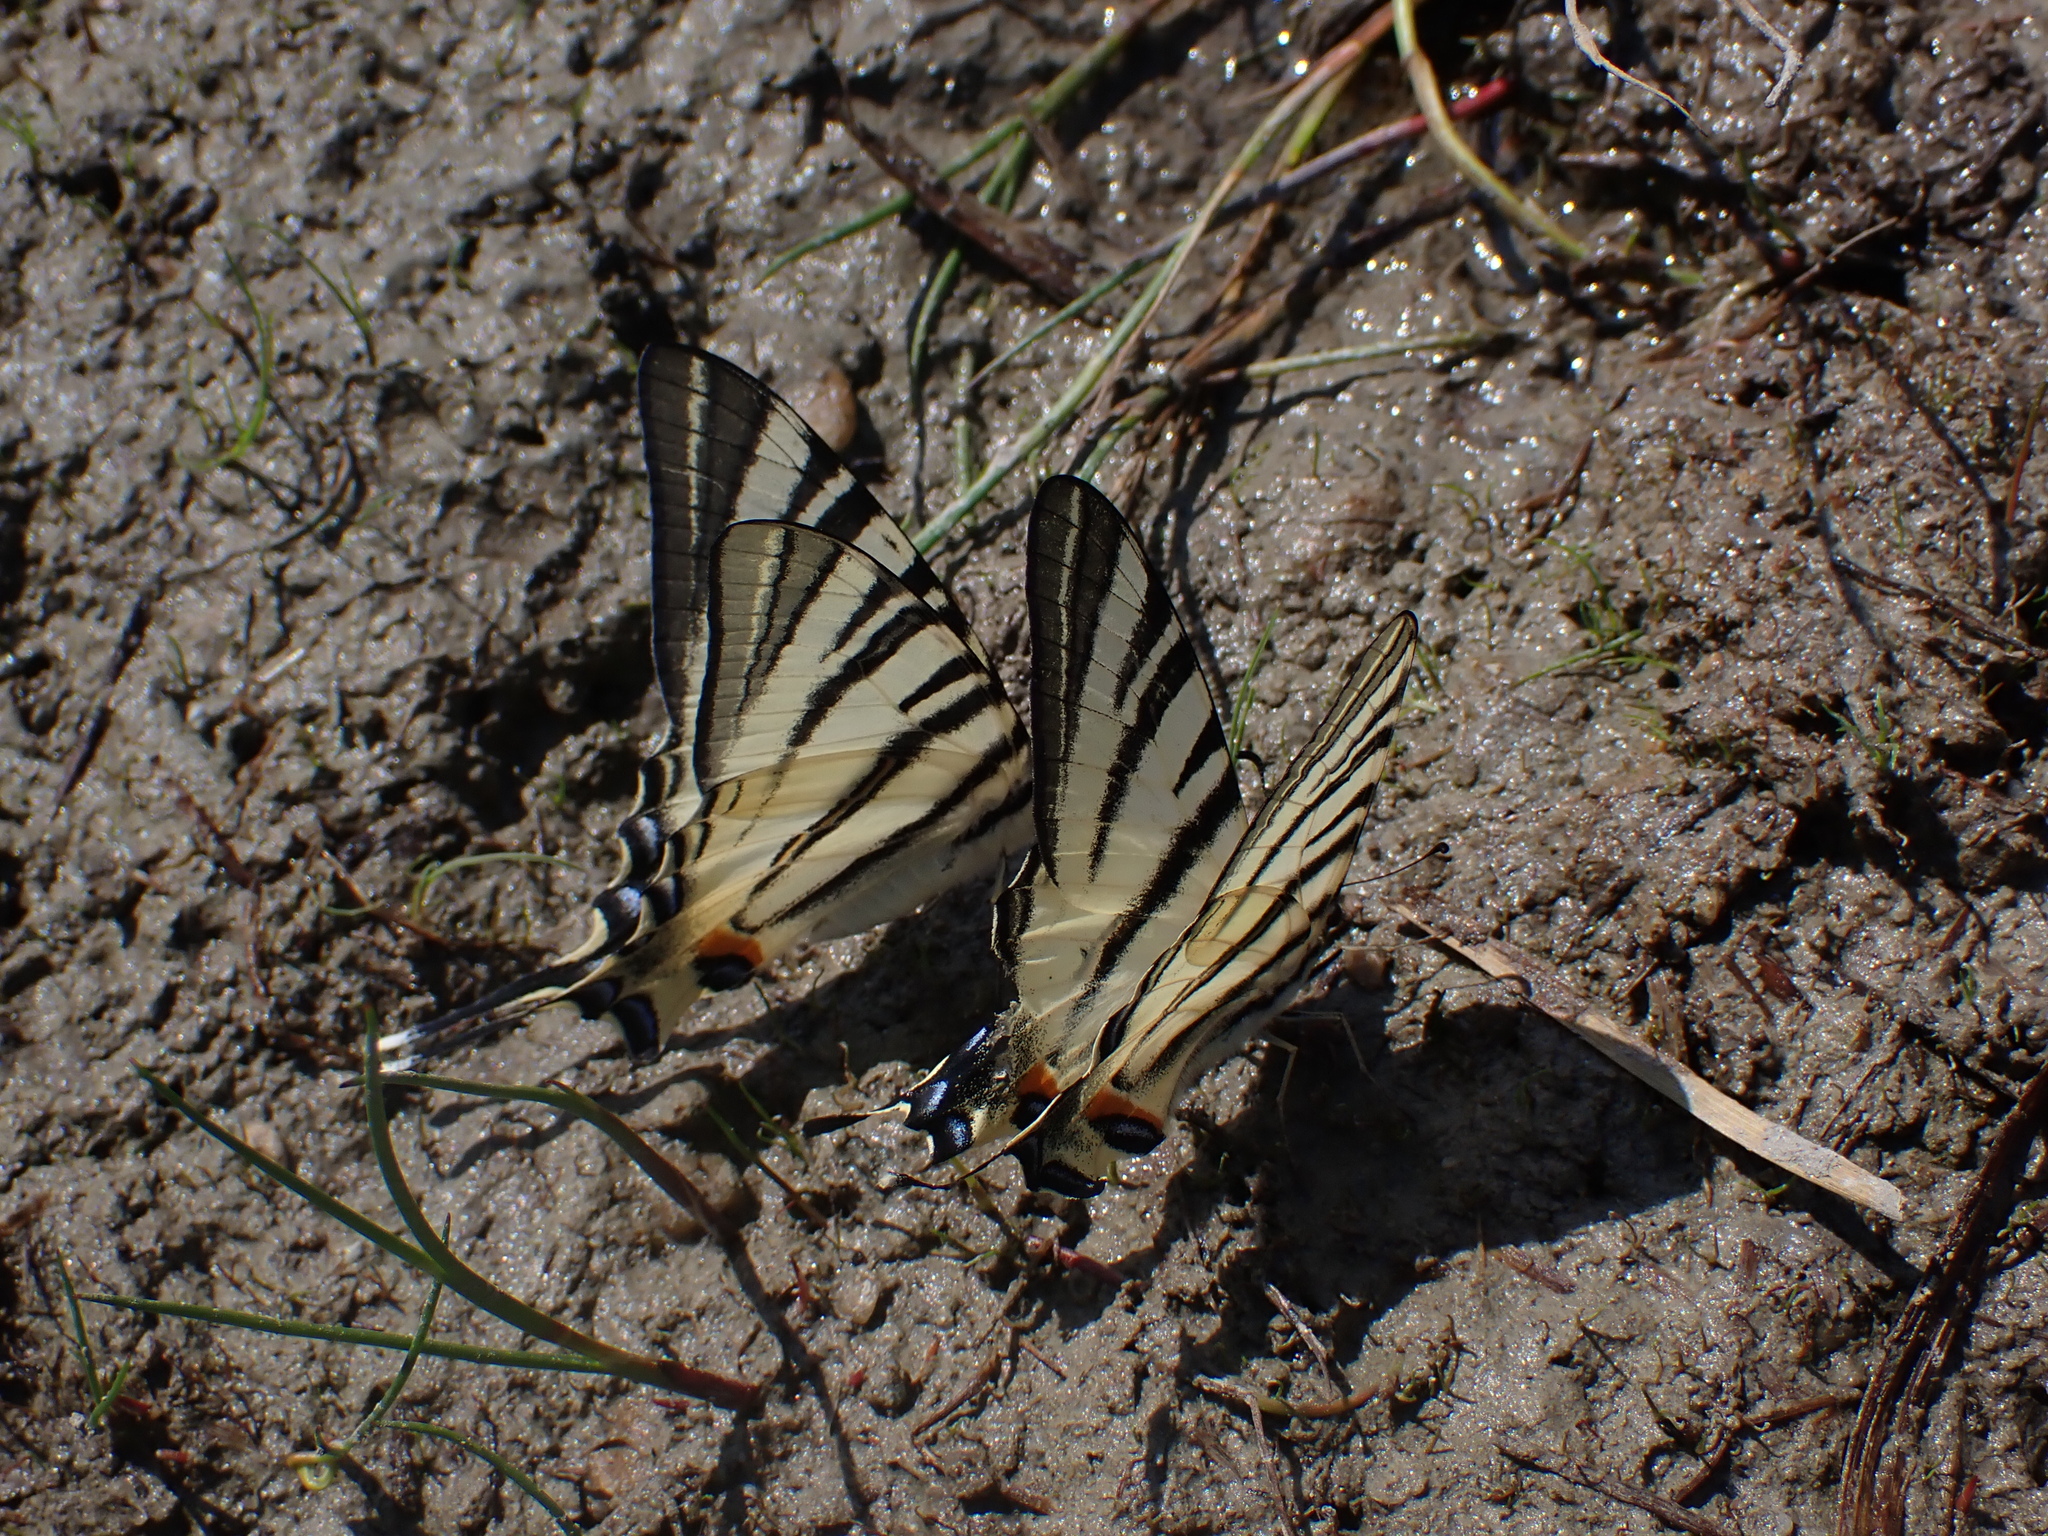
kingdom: Animalia
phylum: Arthropoda
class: Insecta
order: Lepidoptera
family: Papilionidae
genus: Iphiclides
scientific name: Iphiclides podalirius
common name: Scarce swallowtail
